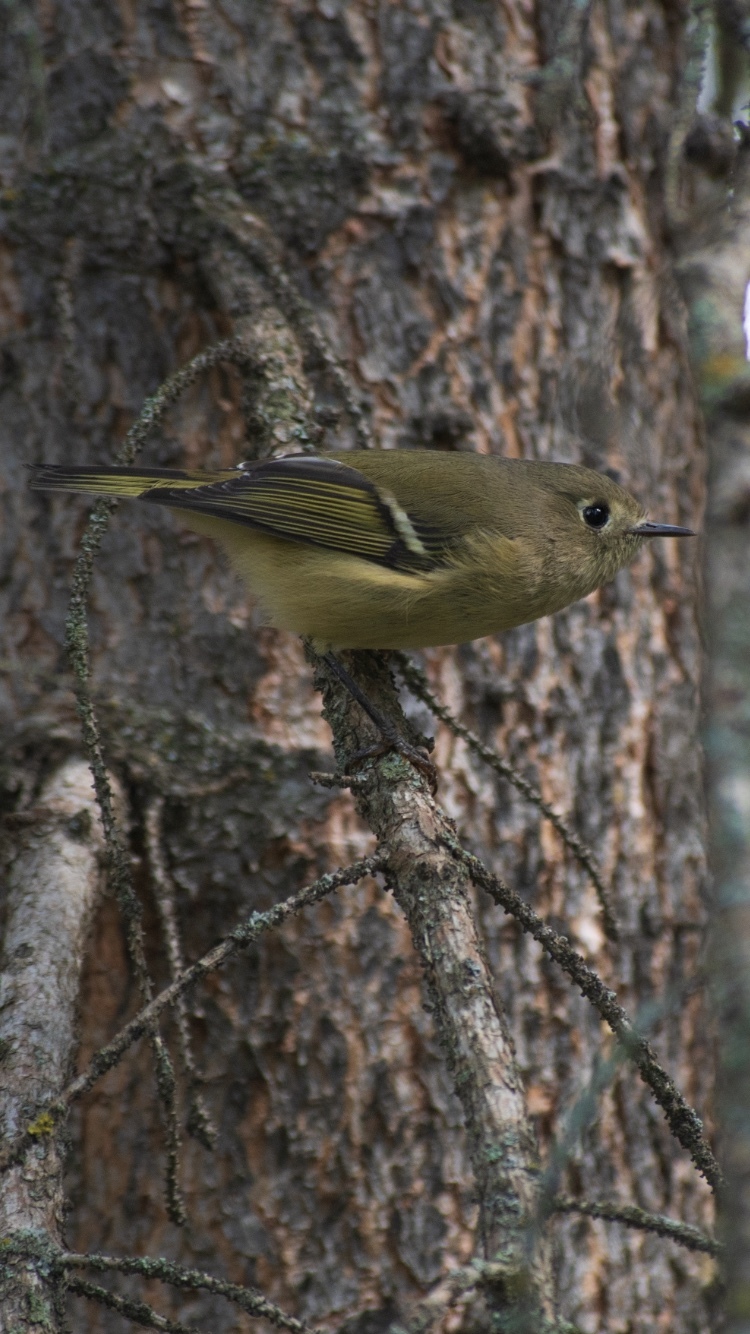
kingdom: Animalia
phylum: Chordata
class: Aves
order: Passeriformes
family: Regulidae
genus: Regulus
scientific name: Regulus calendula
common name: Ruby-crowned kinglet
